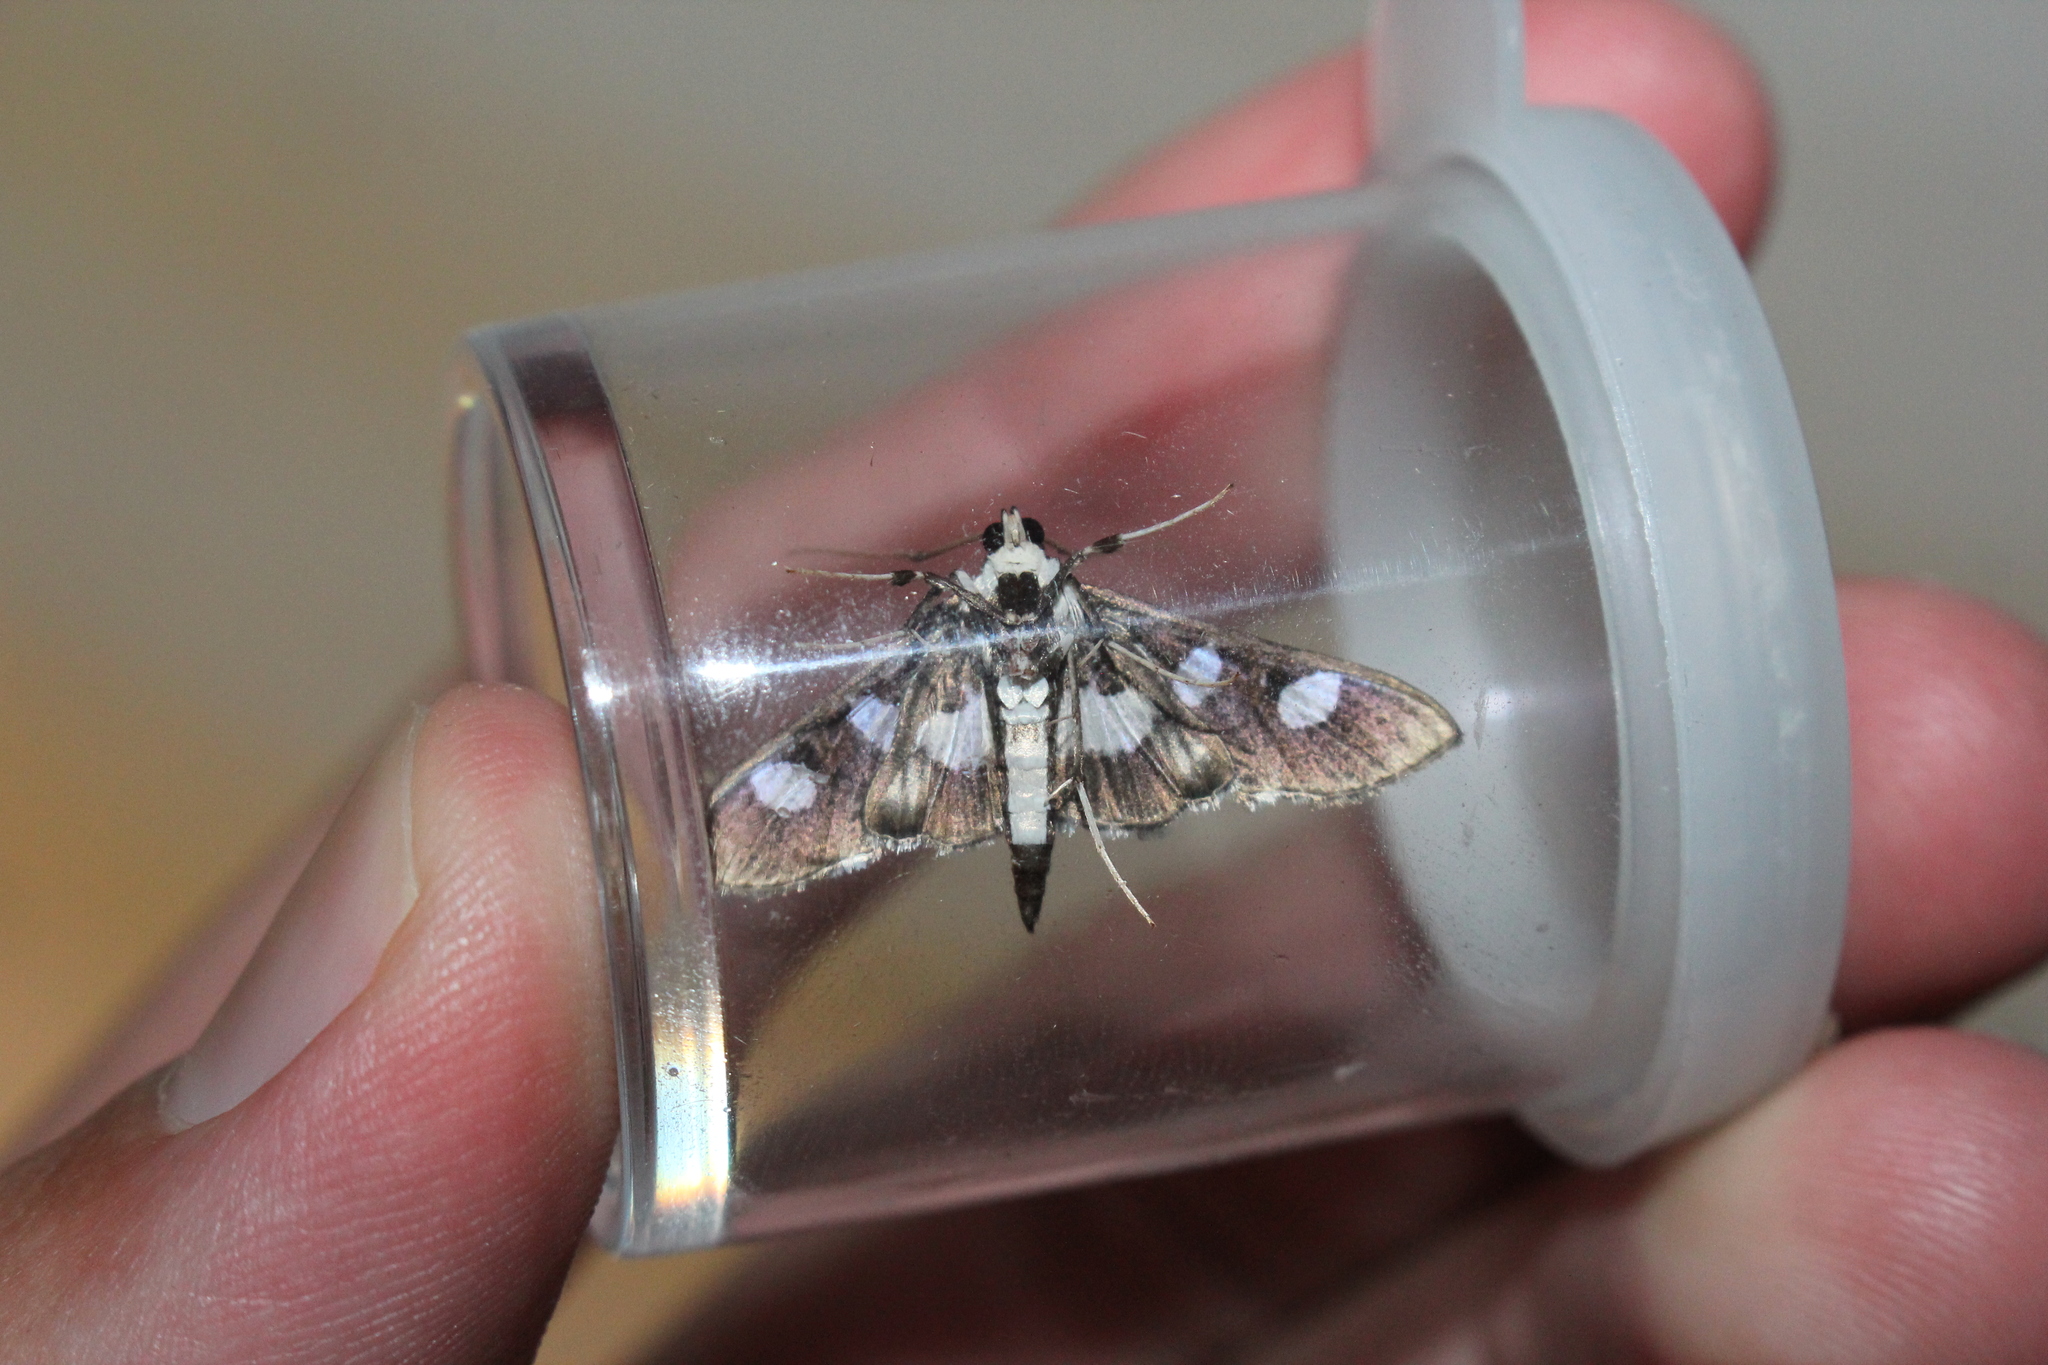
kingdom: Animalia
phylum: Arthropoda
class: Insecta
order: Lepidoptera
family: Crambidae
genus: Desmia
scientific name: Desmia funeralis
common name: Grape leaf folder moth
